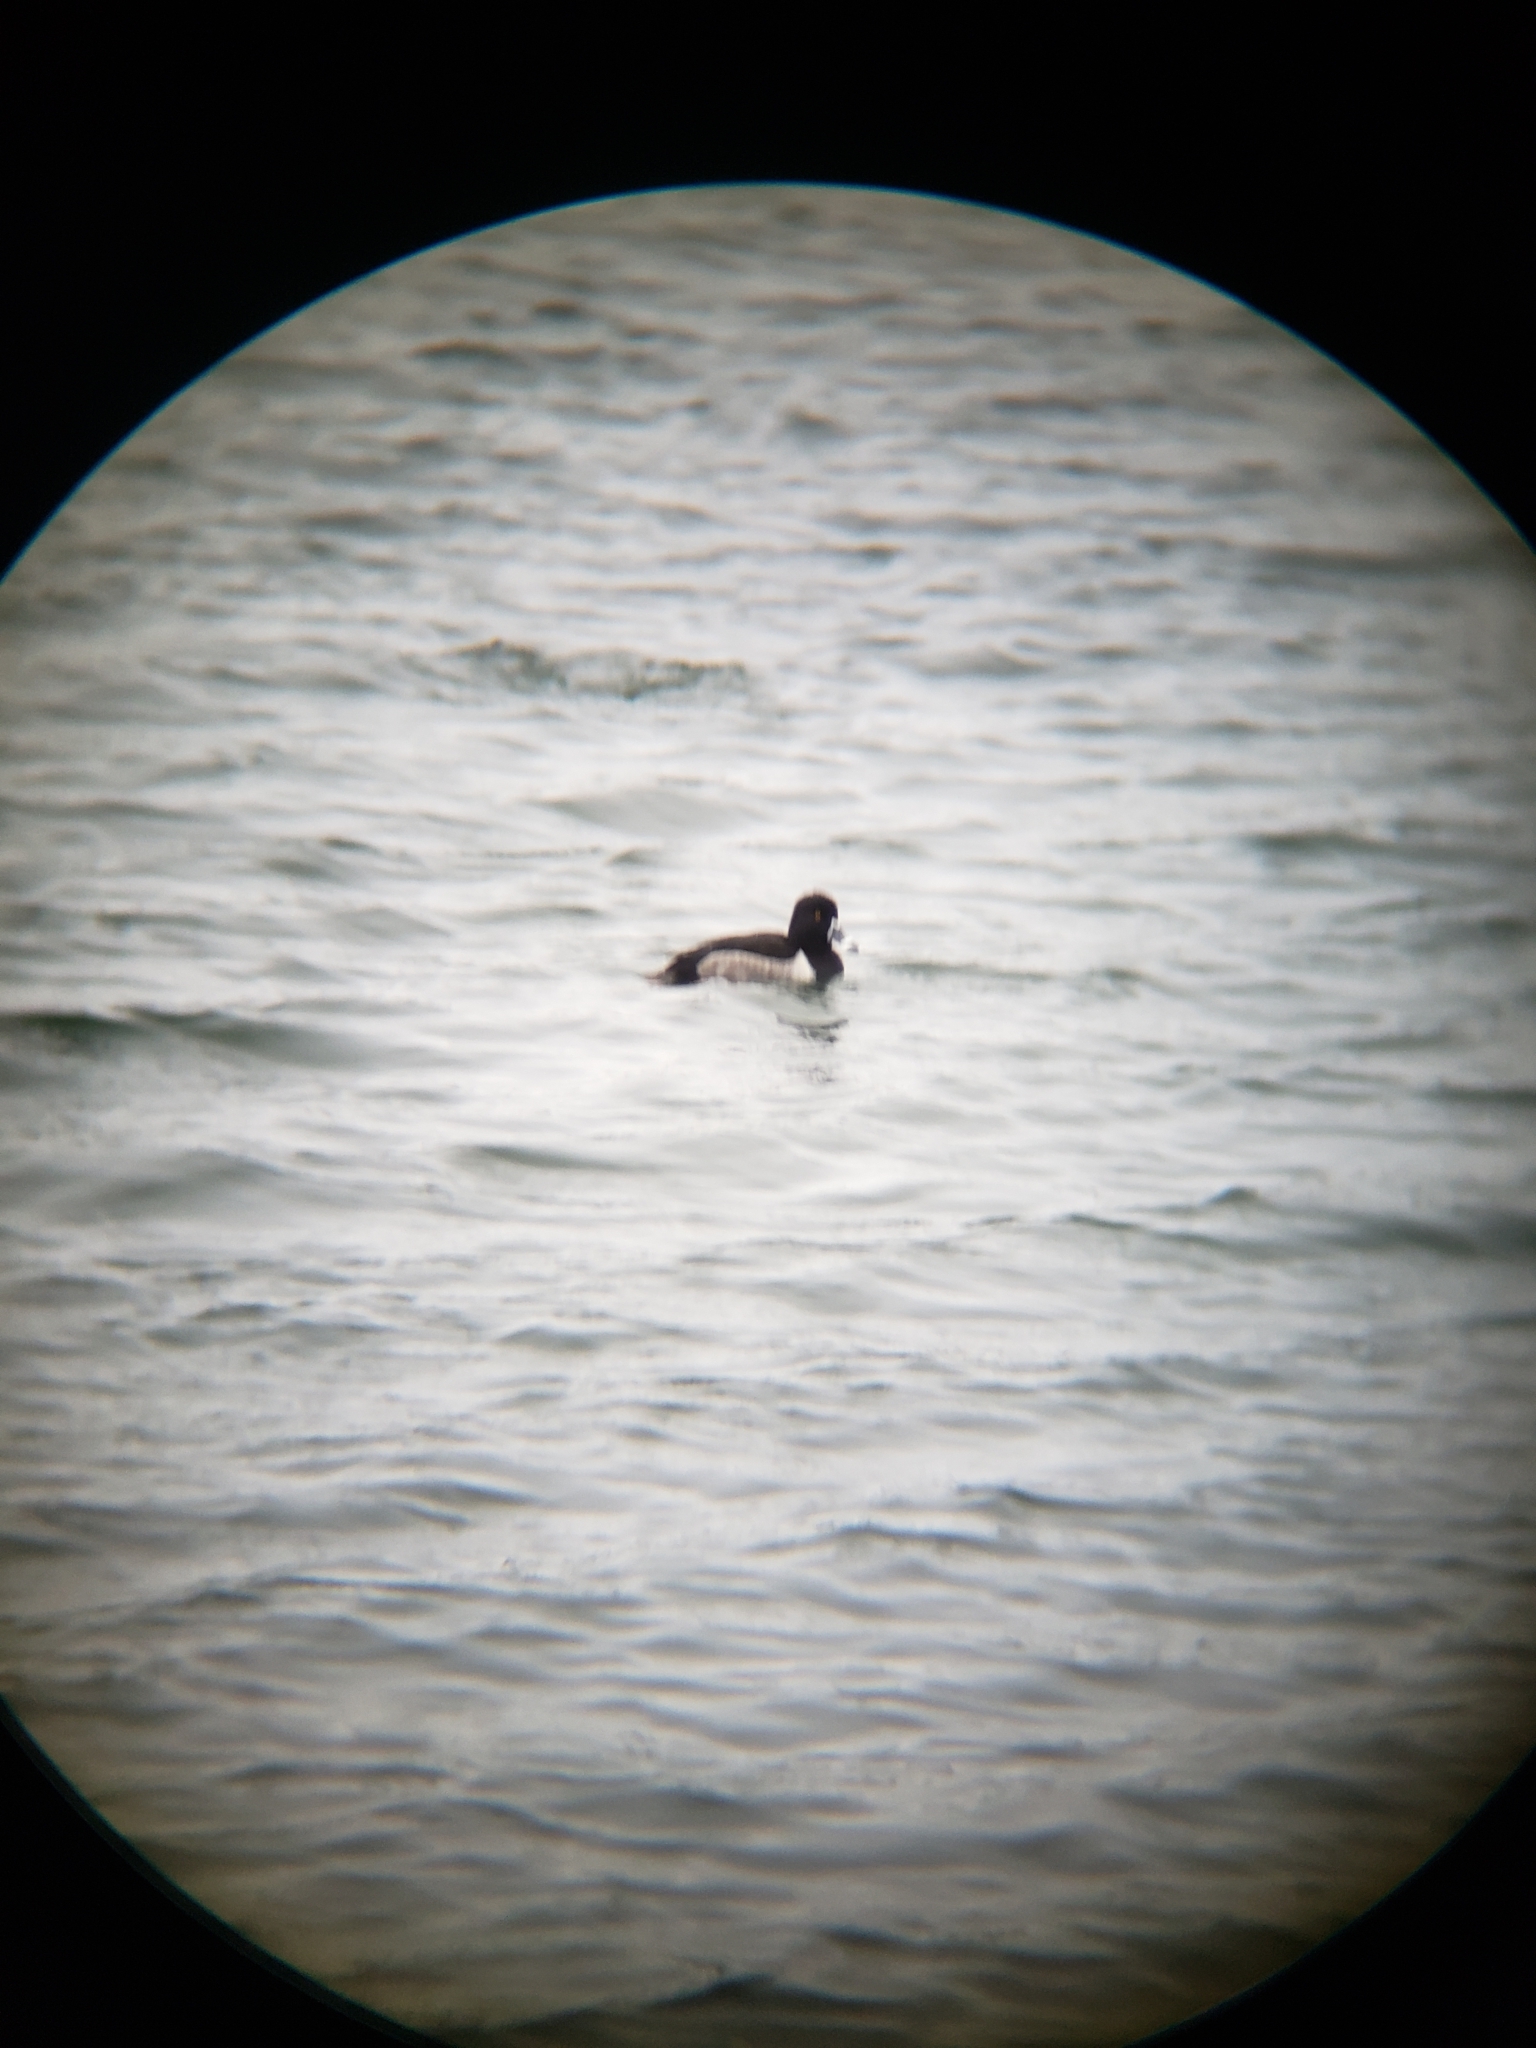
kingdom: Animalia
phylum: Chordata
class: Aves
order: Anseriformes
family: Anatidae
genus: Aythya
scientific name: Aythya collaris
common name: Ring-necked duck
